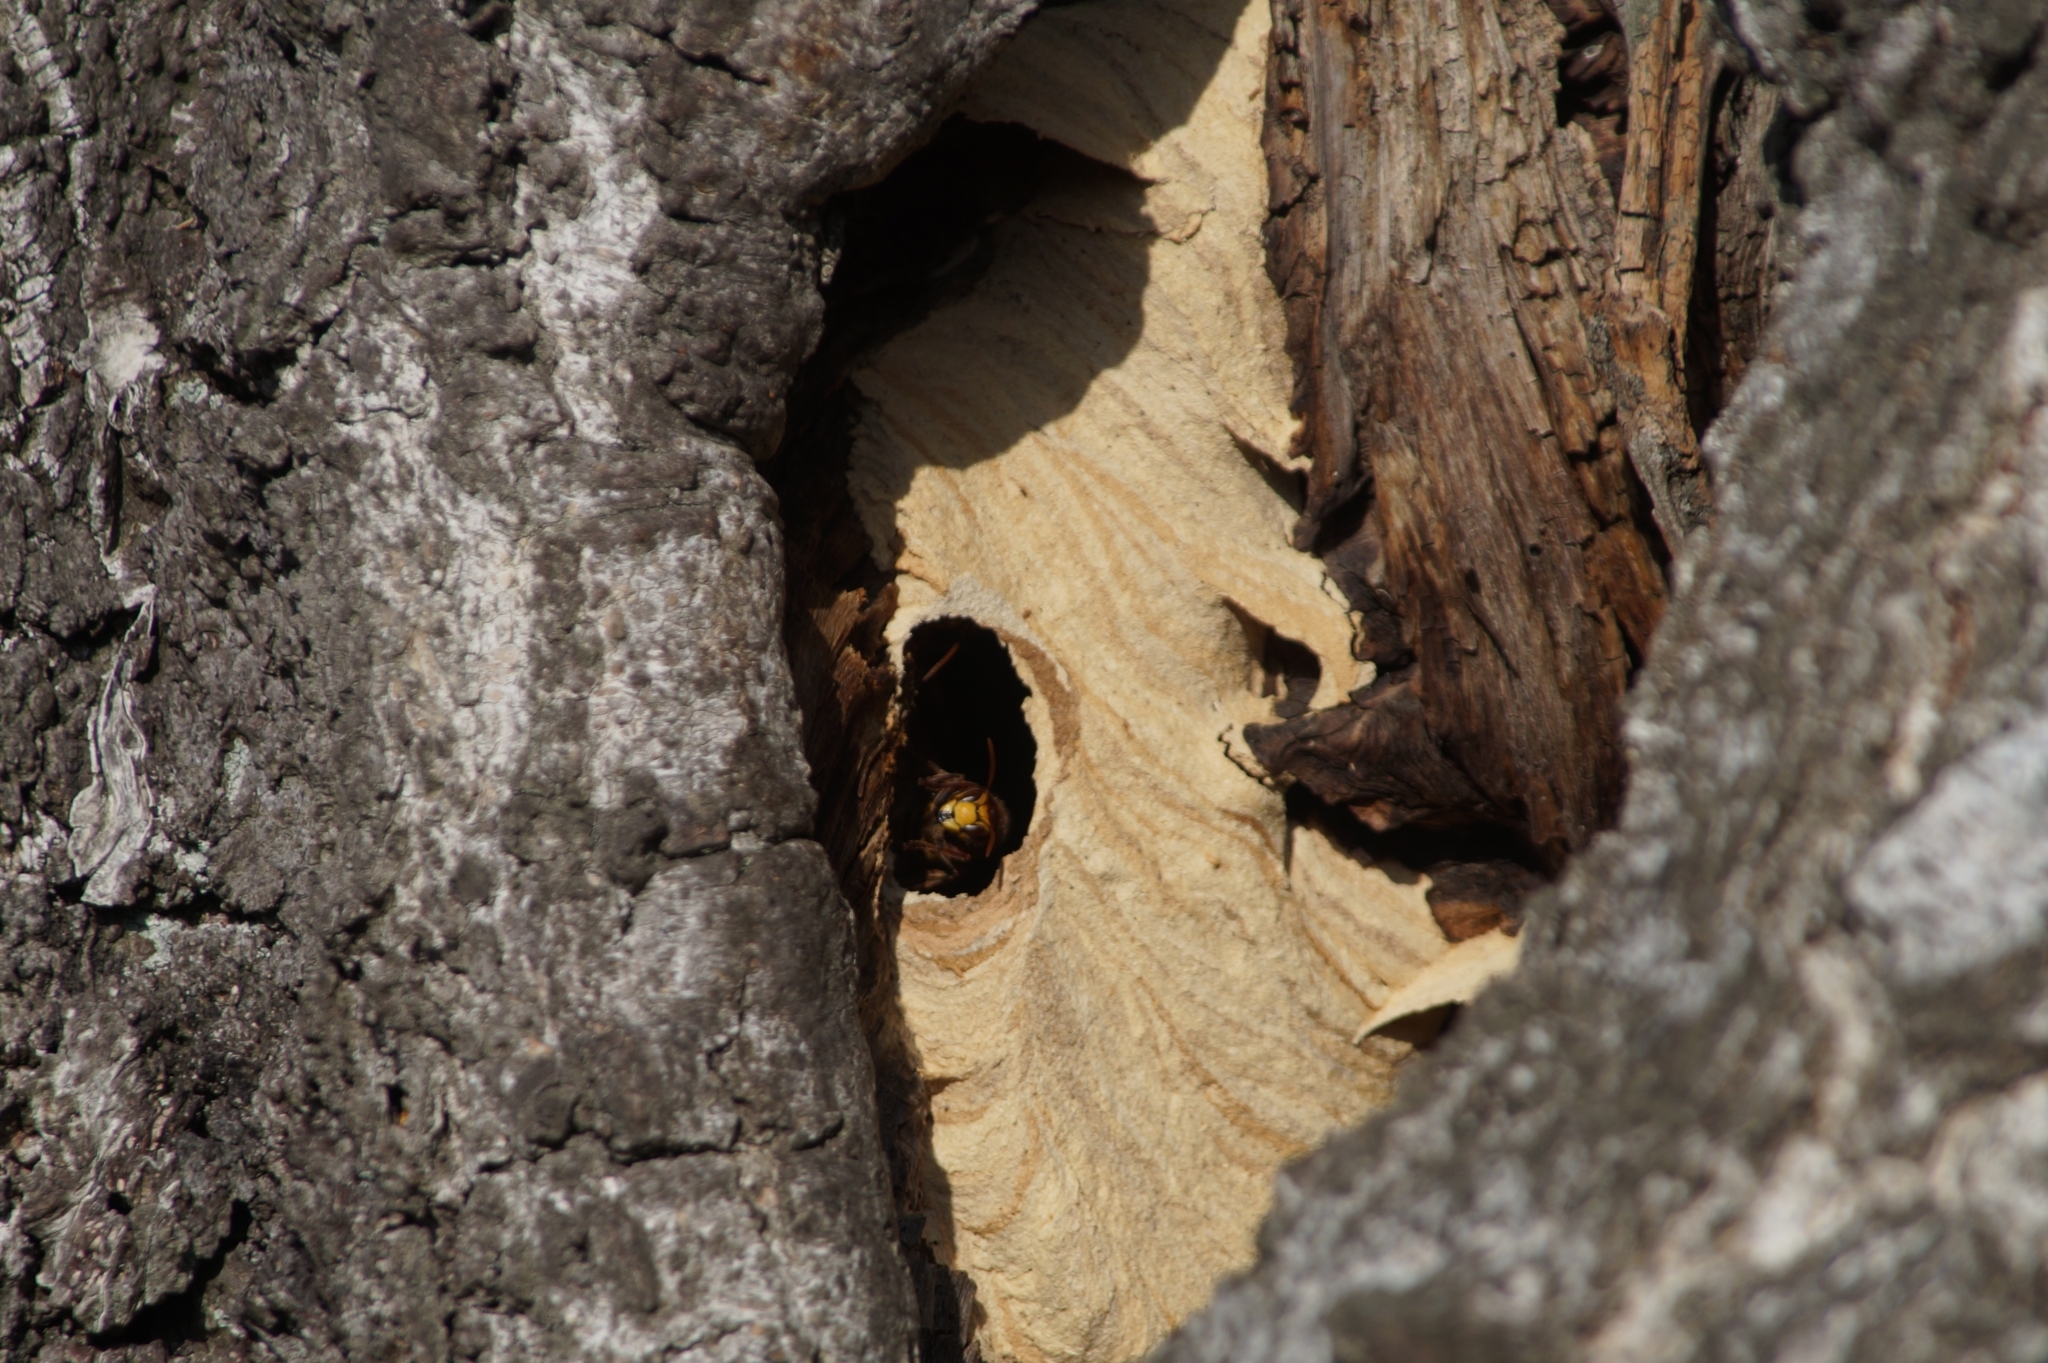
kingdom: Animalia
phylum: Arthropoda
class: Insecta
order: Hymenoptera
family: Vespidae
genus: Vespa
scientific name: Vespa crabro
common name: Hornet
